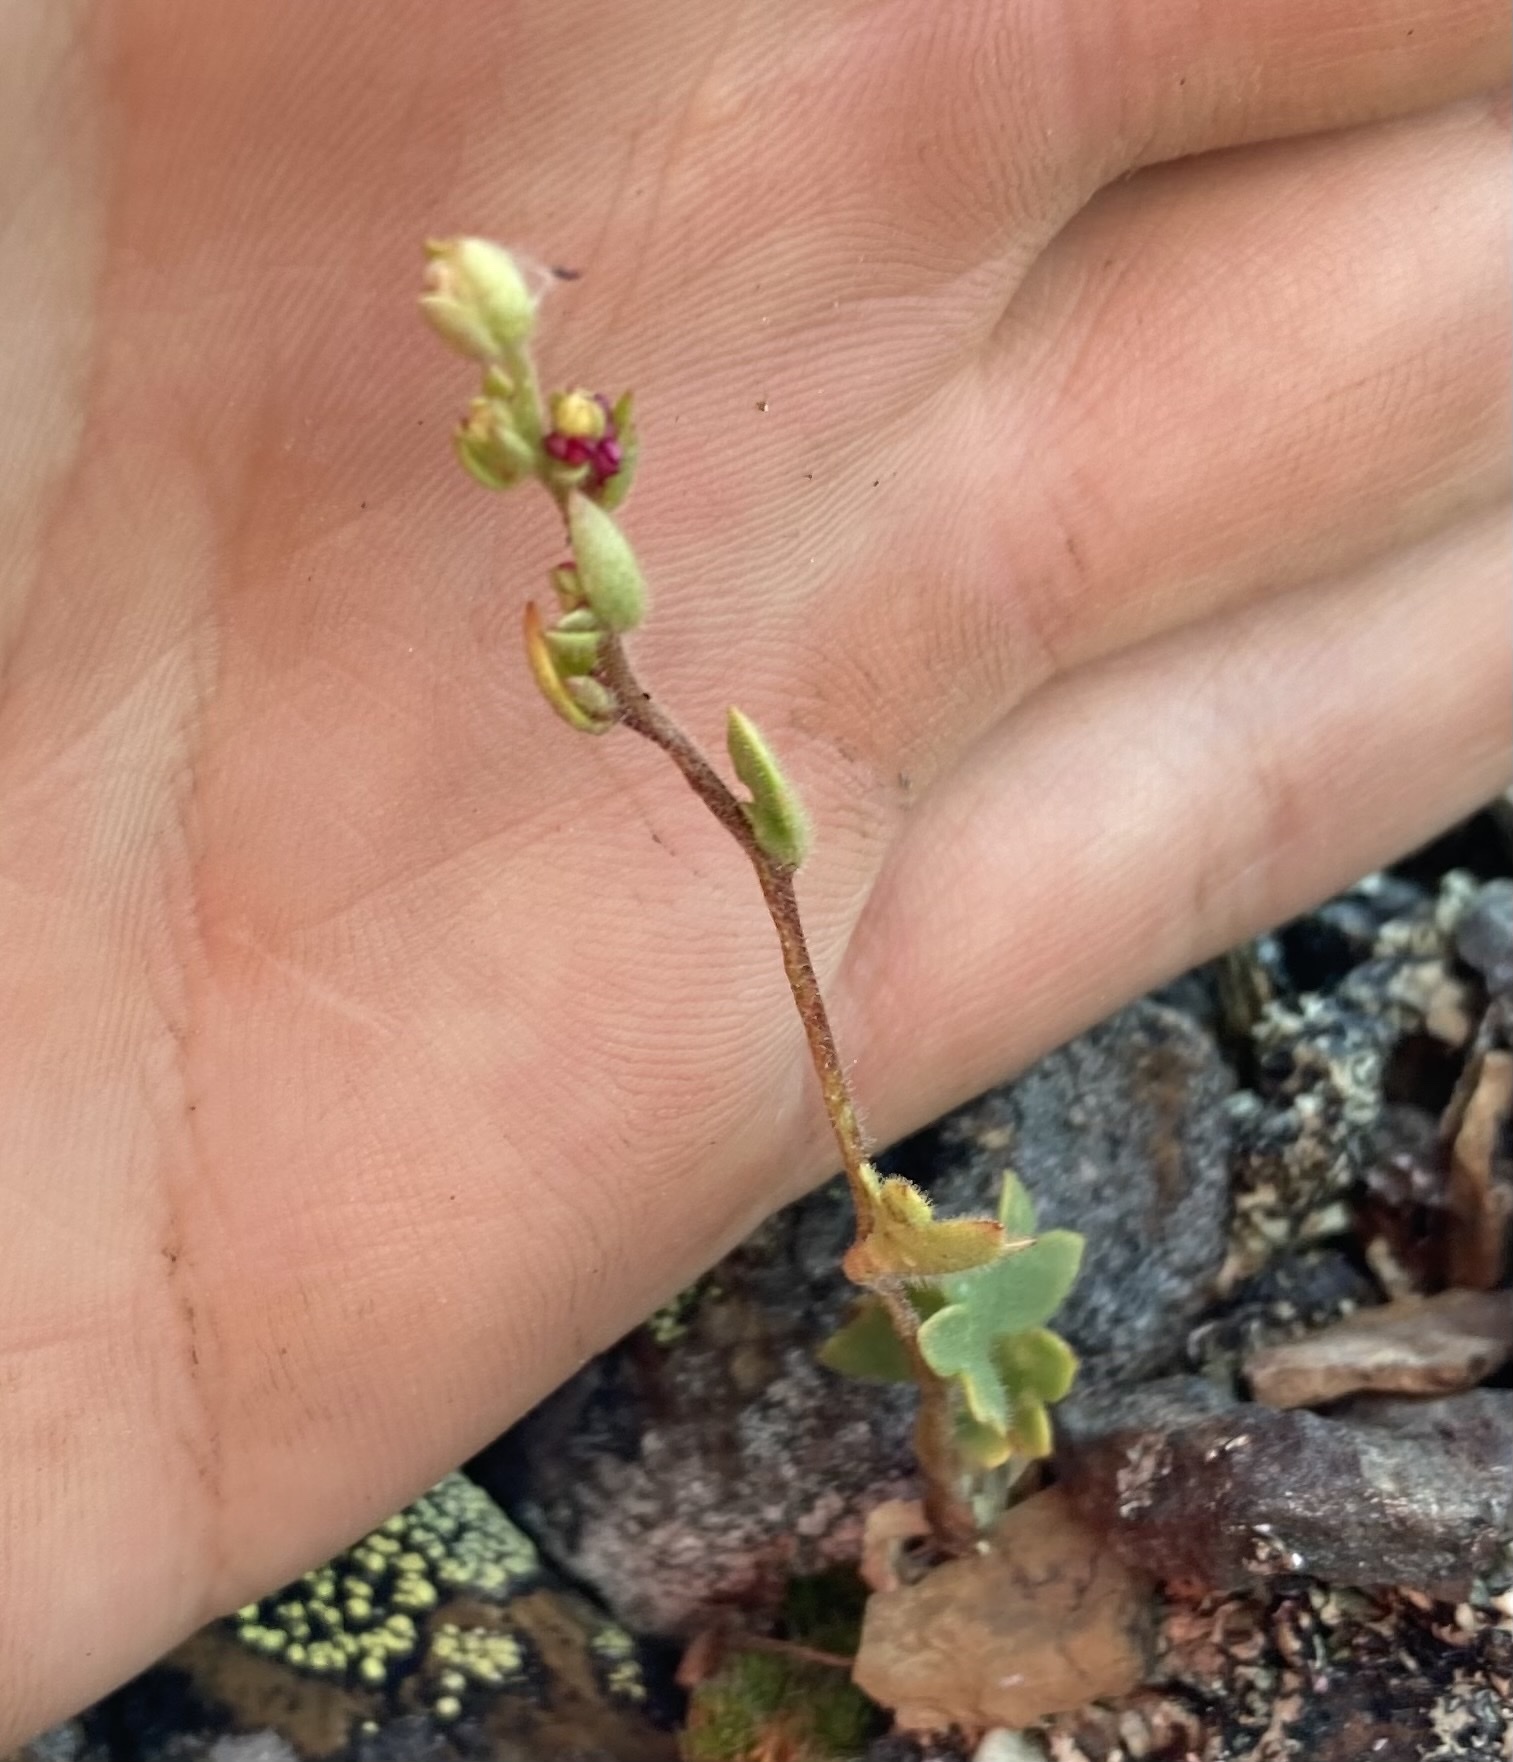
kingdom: Plantae
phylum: Tracheophyta
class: Magnoliopsida
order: Saxifragales
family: Saxifragaceae
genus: Saxifraga
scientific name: Saxifraga cernua
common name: Drooping saxifrage
